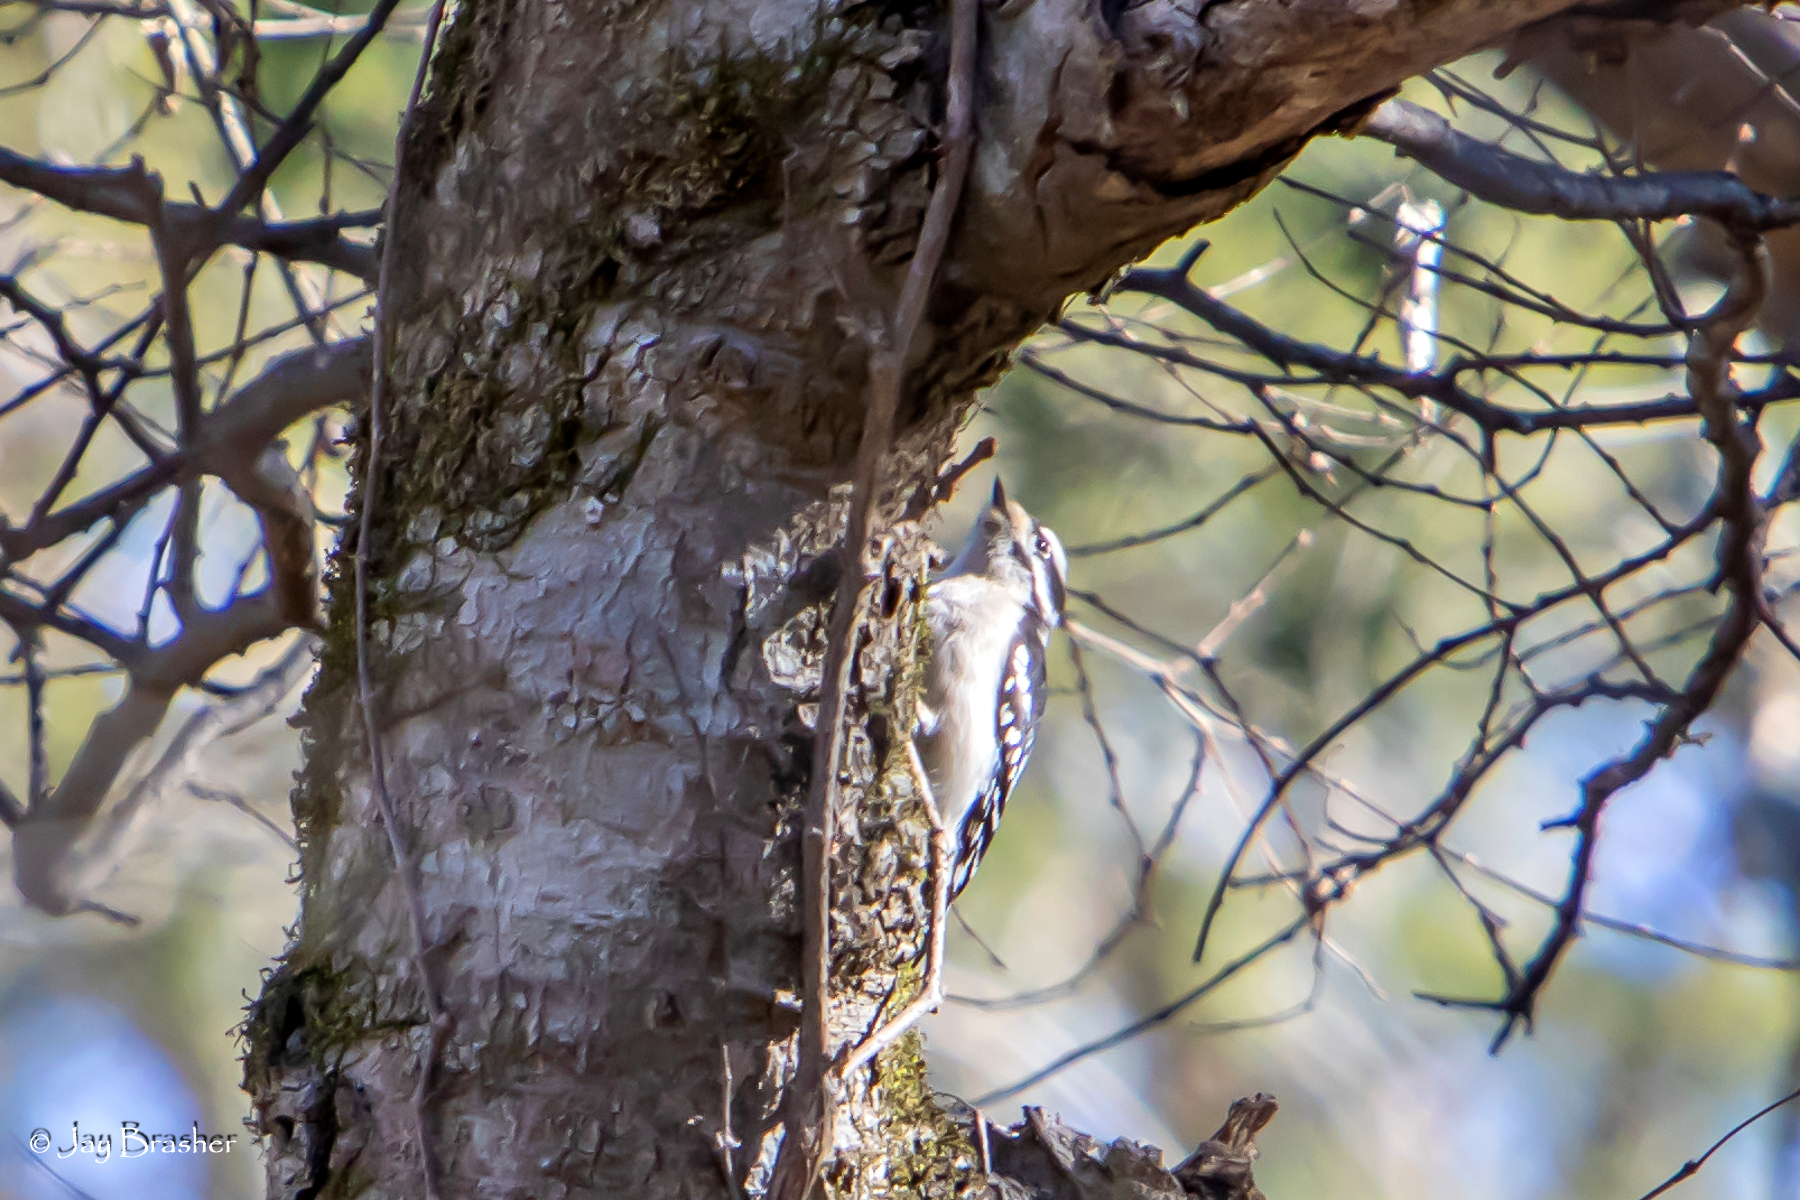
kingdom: Animalia
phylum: Chordata
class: Aves
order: Piciformes
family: Picidae
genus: Dryobates
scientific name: Dryobates pubescens
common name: Downy woodpecker
